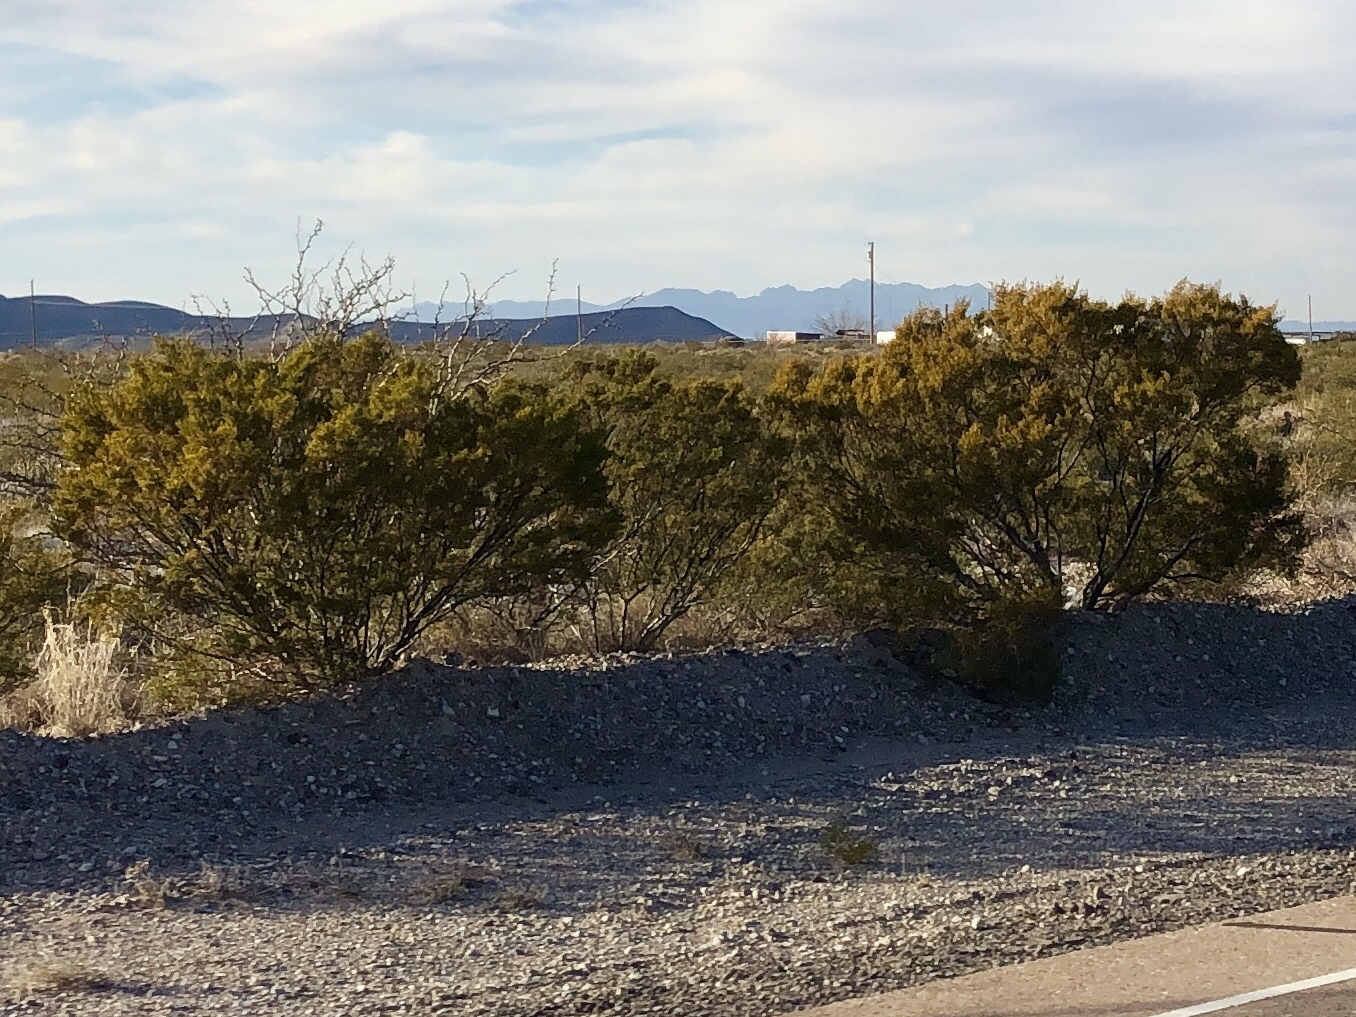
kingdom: Plantae
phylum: Tracheophyta
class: Magnoliopsida
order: Zygophyllales
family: Zygophyllaceae
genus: Larrea
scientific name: Larrea tridentata
